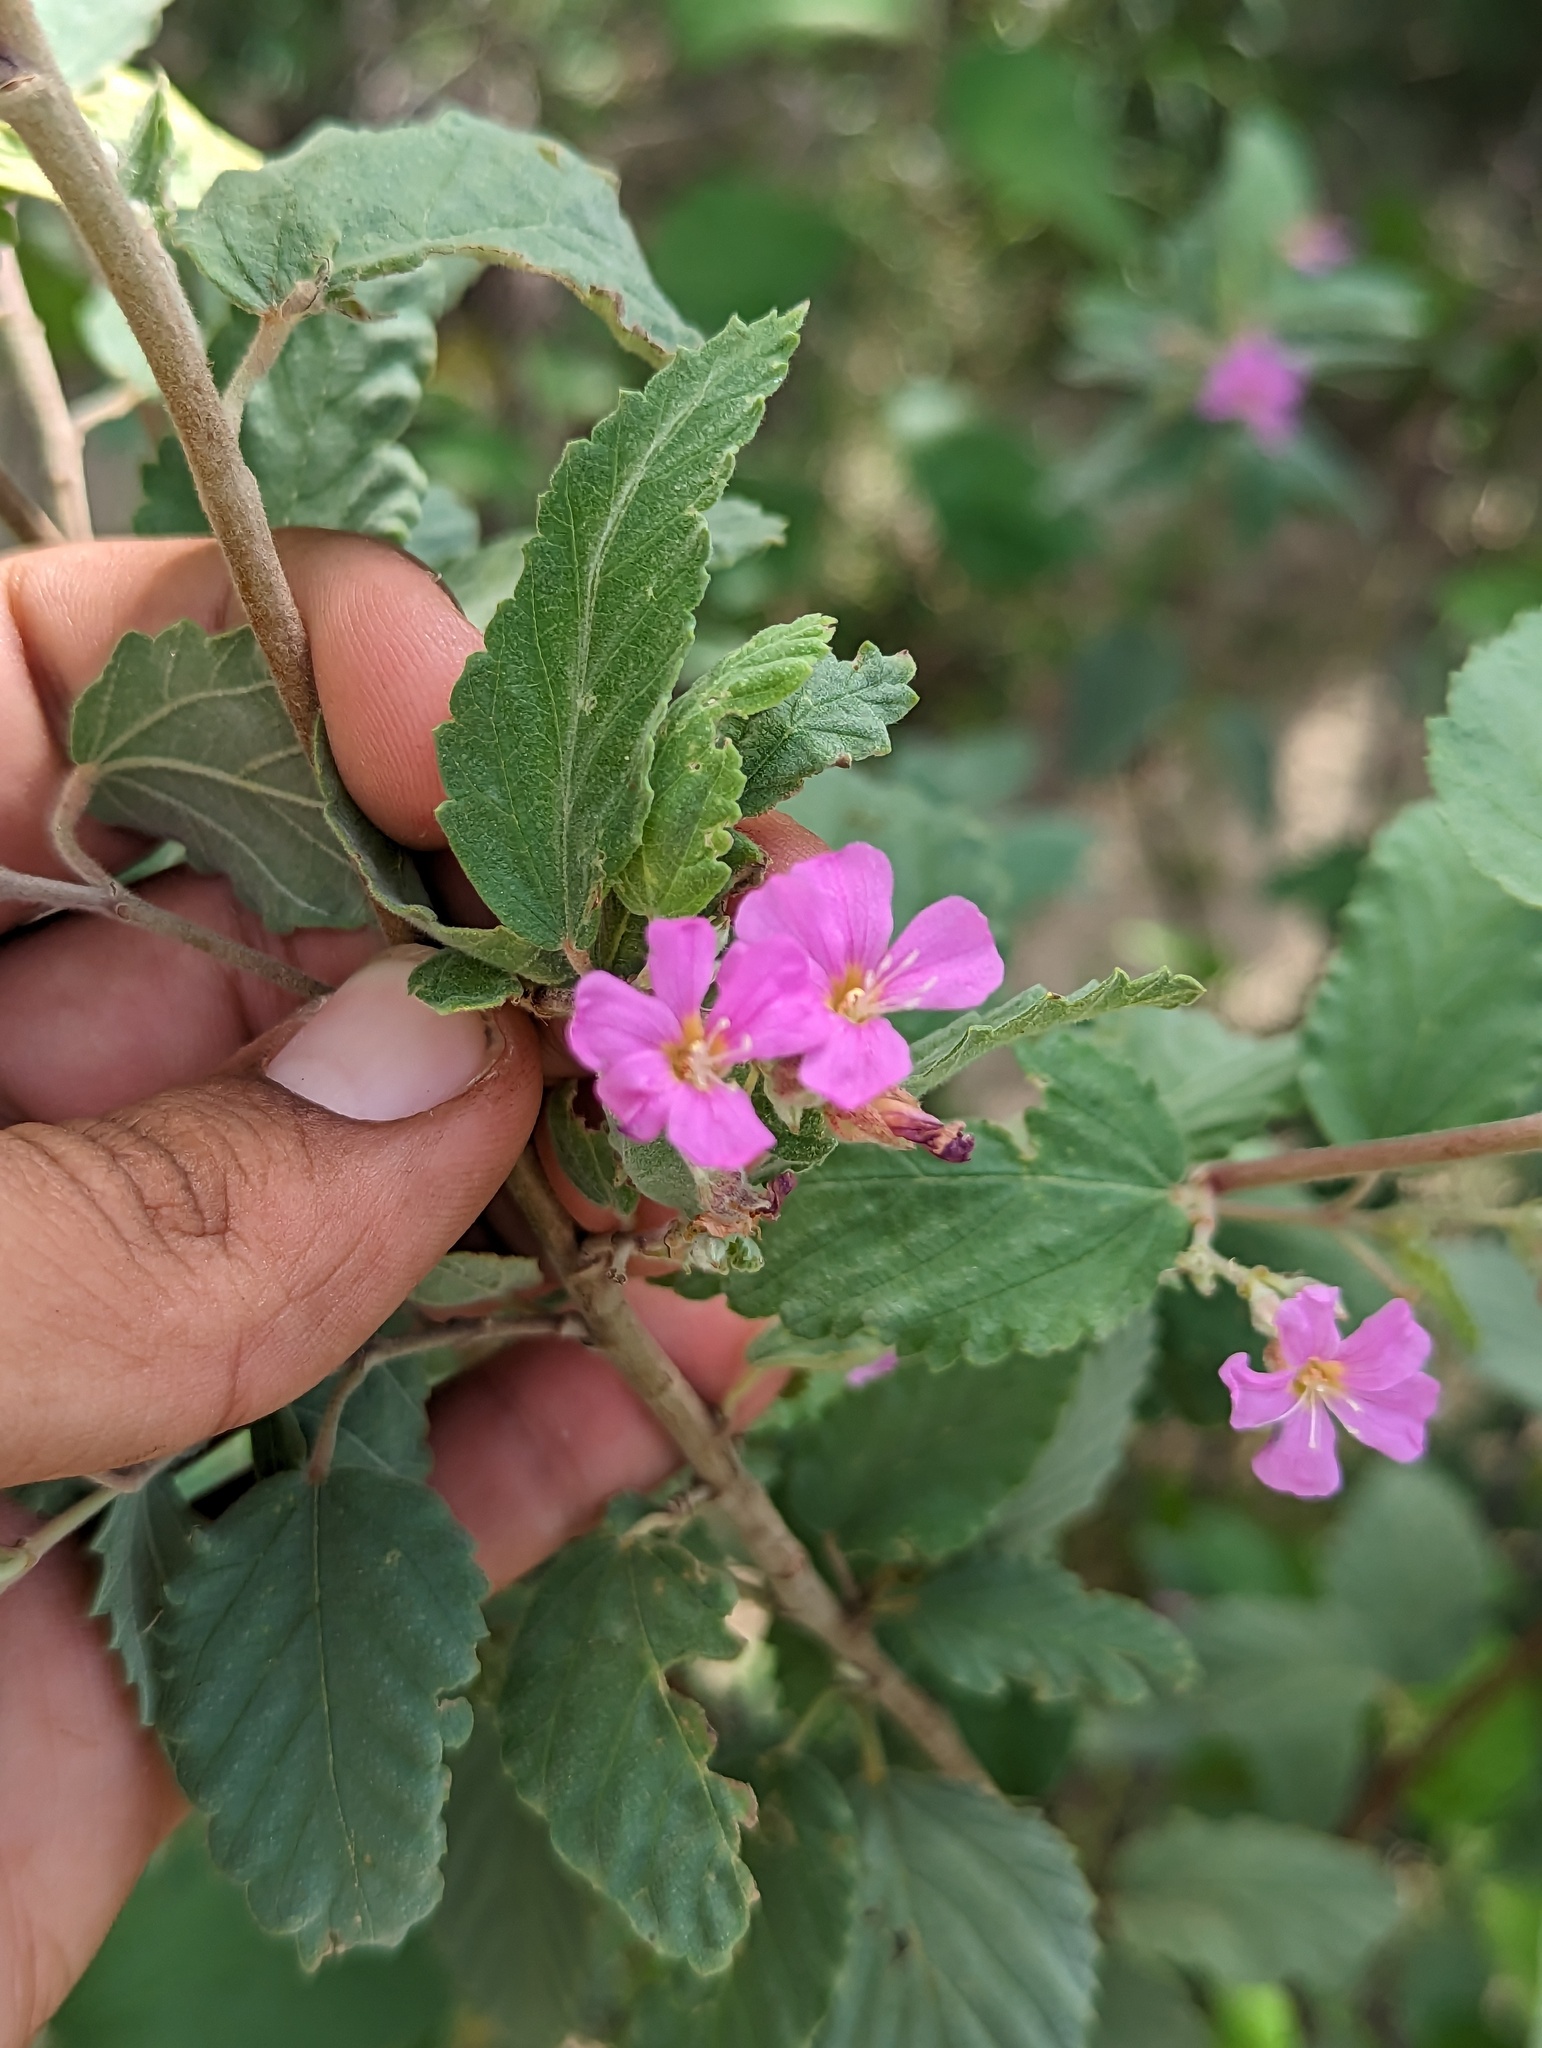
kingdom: Plantae
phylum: Tracheophyta
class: Magnoliopsida
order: Malvales
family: Malvaceae
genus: Melochia
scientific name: Melochia tomentosa
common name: Black torch
